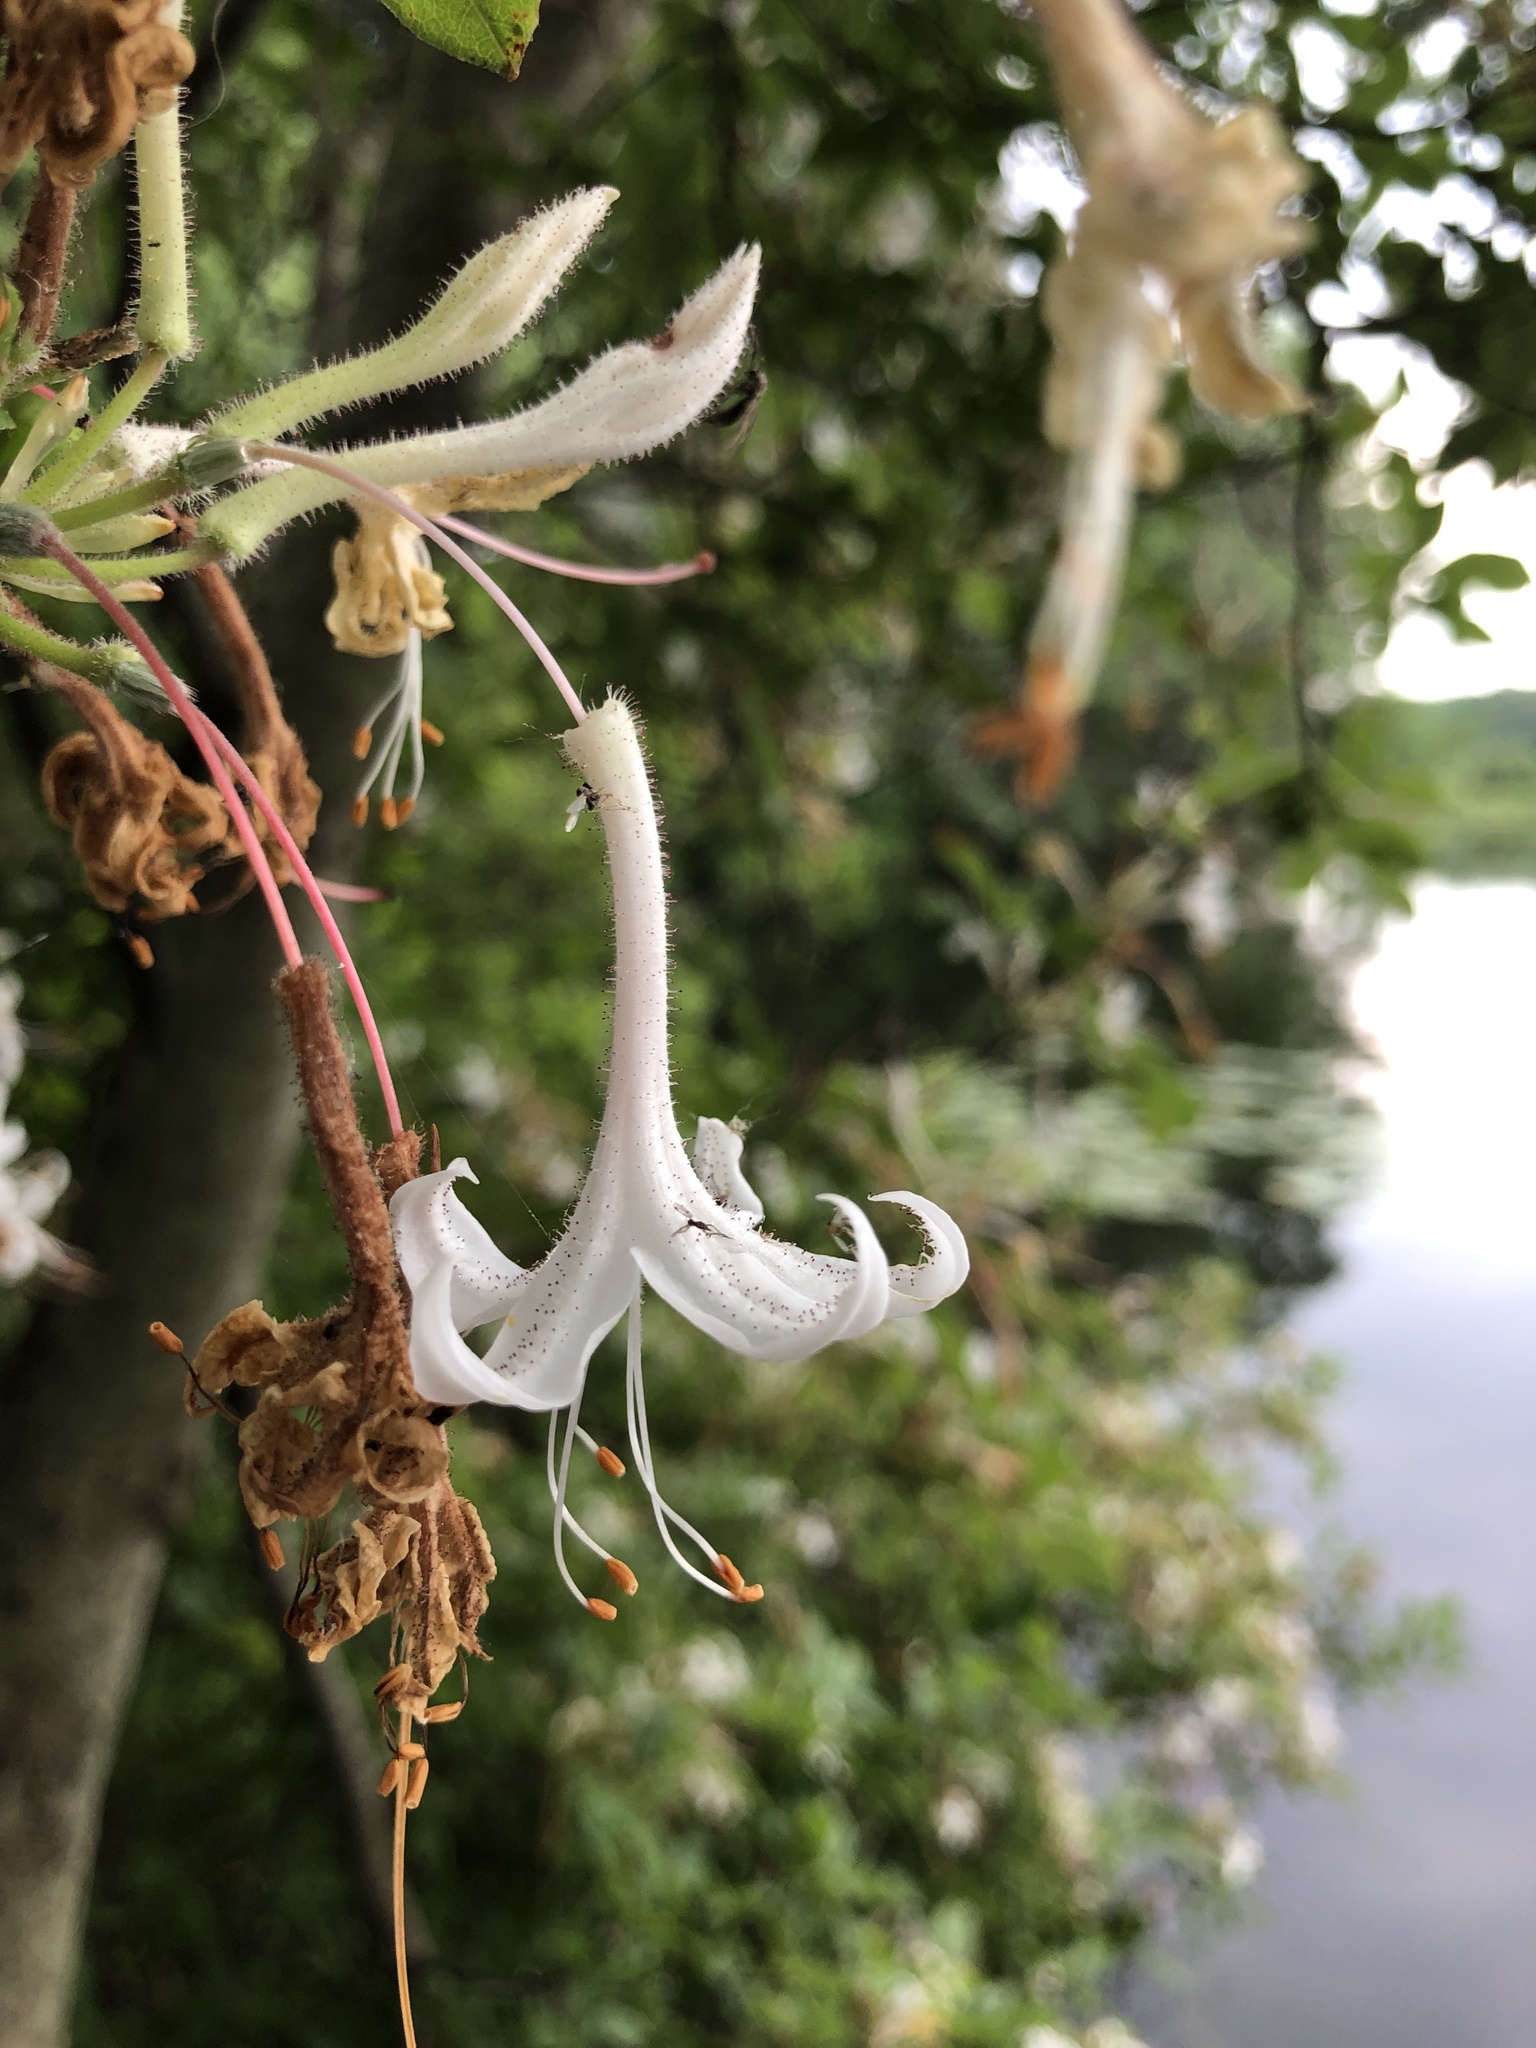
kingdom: Plantae
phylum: Tracheophyta
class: Magnoliopsida
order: Ericales
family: Ericaceae
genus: Rhododendron
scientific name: Rhododendron viscosum
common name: Clammy azalea
